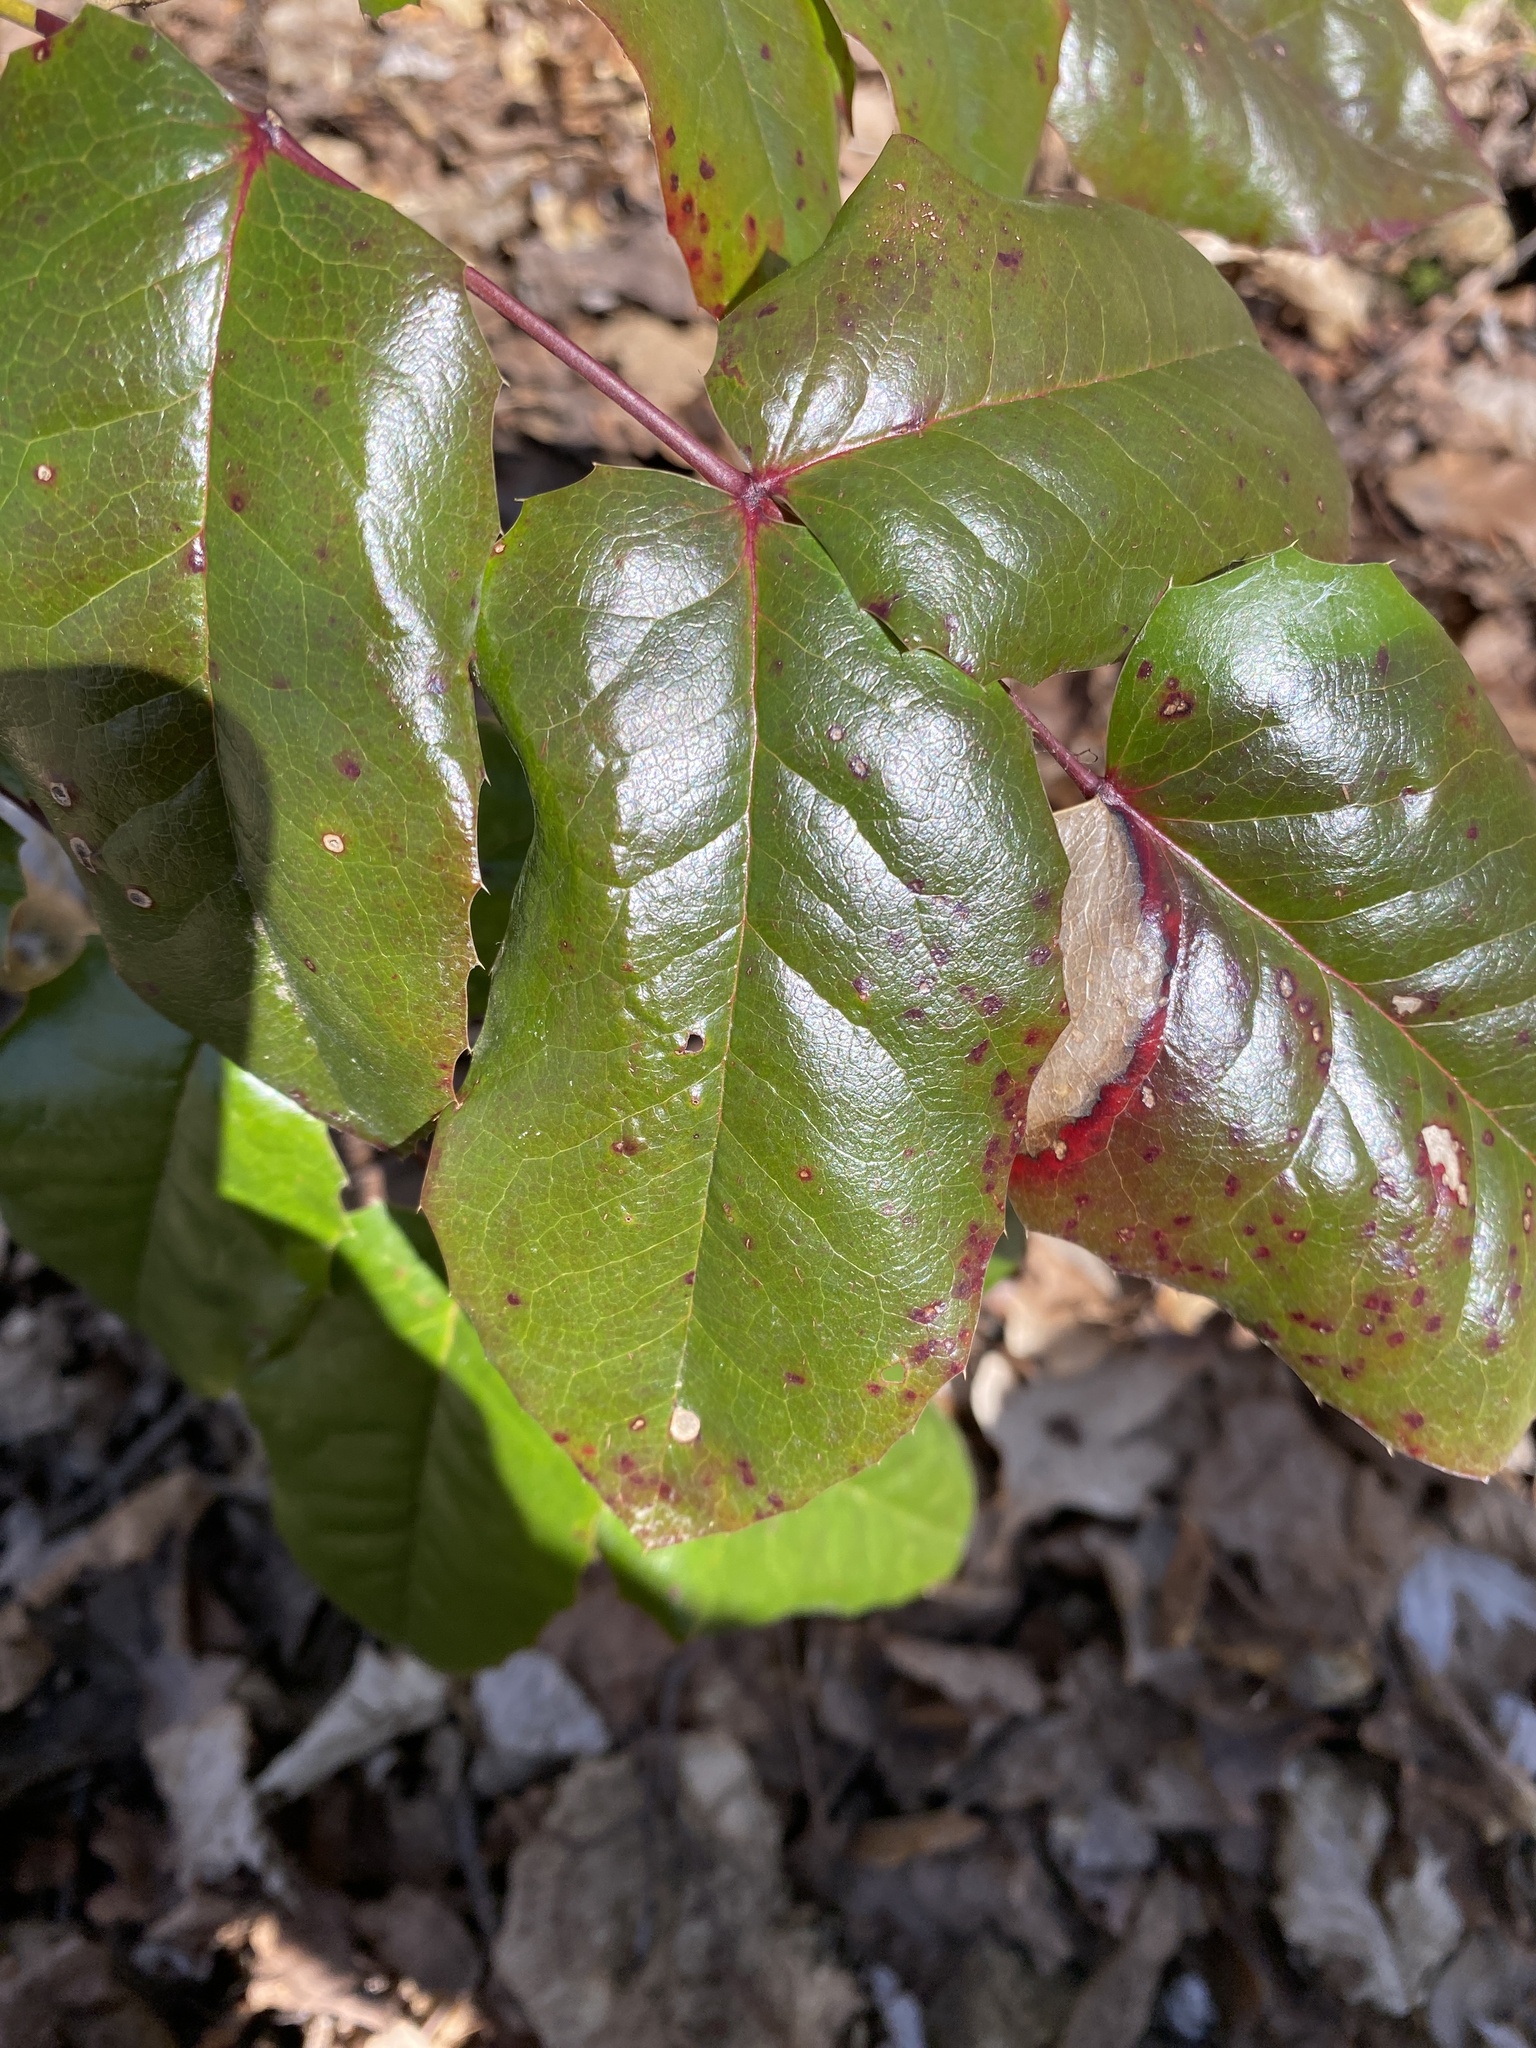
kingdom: Plantae
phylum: Tracheophyta
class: Magnoliopsida
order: Ranunculales
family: Berberidaceae
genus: Mahonia
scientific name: Mahonia aquifolium
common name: Oregon-grape
